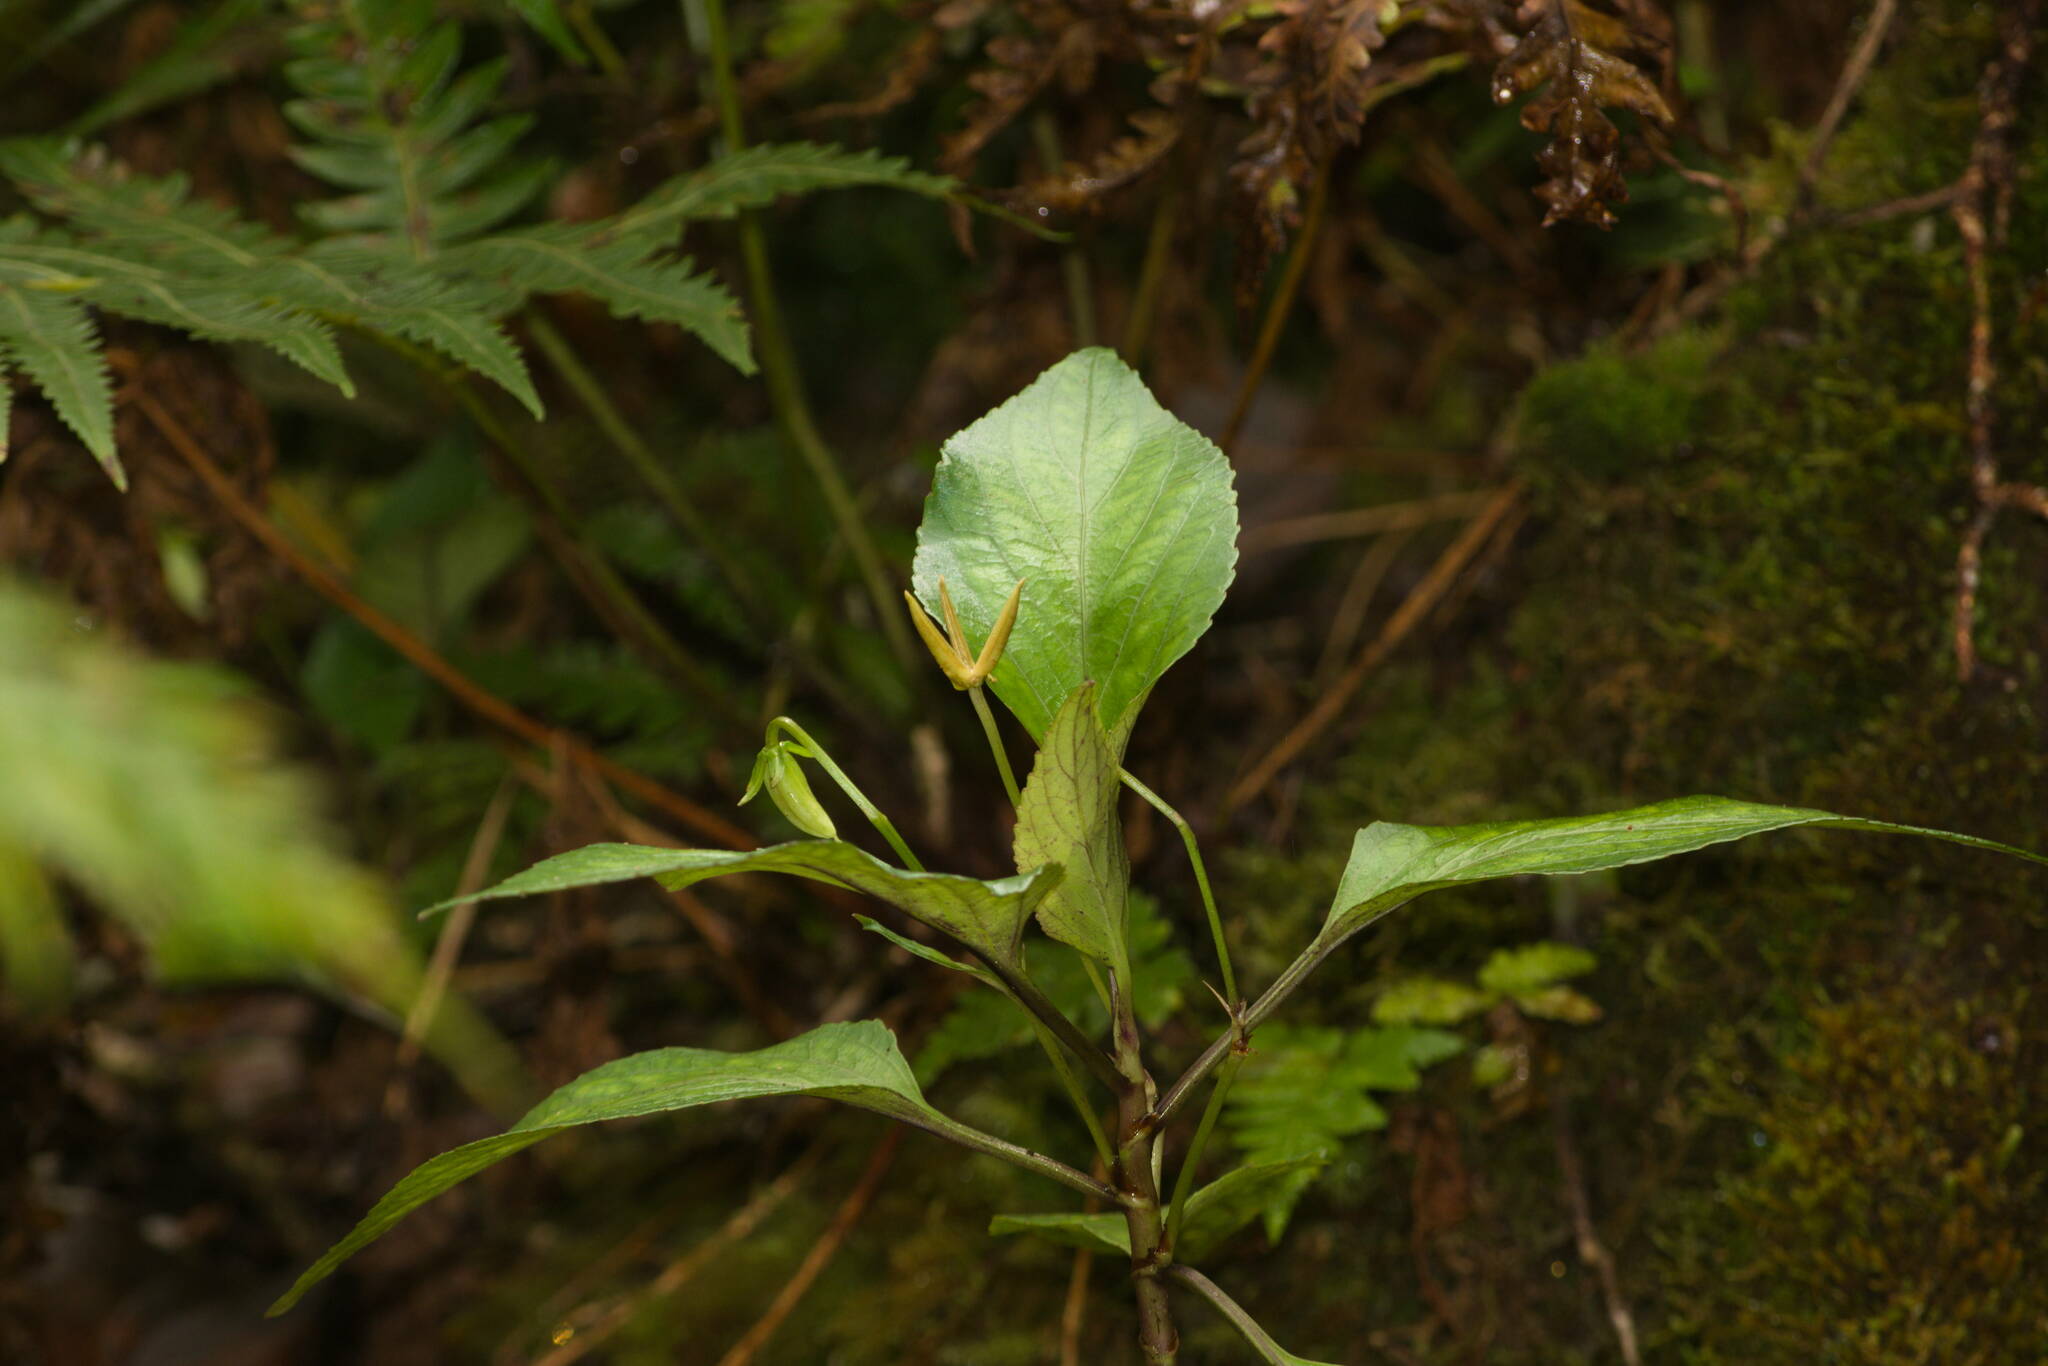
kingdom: Plantae
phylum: Tracheophyta
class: Magnoliopsida
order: Malpighiales
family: Violaceae
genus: Viola
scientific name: Viola chamissoniana
